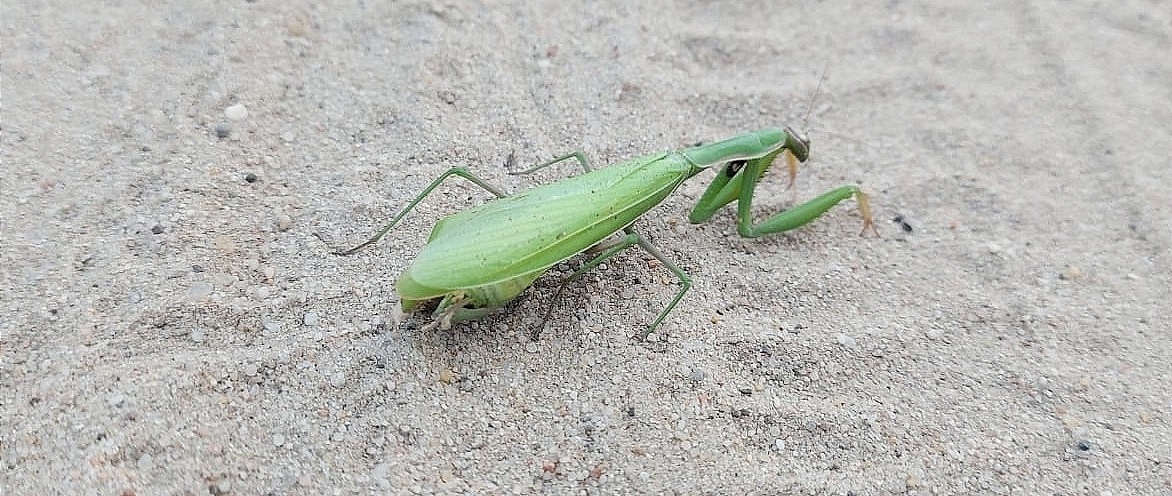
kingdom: Animalia
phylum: Arthropoda
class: Insecta
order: Mantodea
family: Mantidae
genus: Mantis
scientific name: Mantis religiosa
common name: Praying mantis
